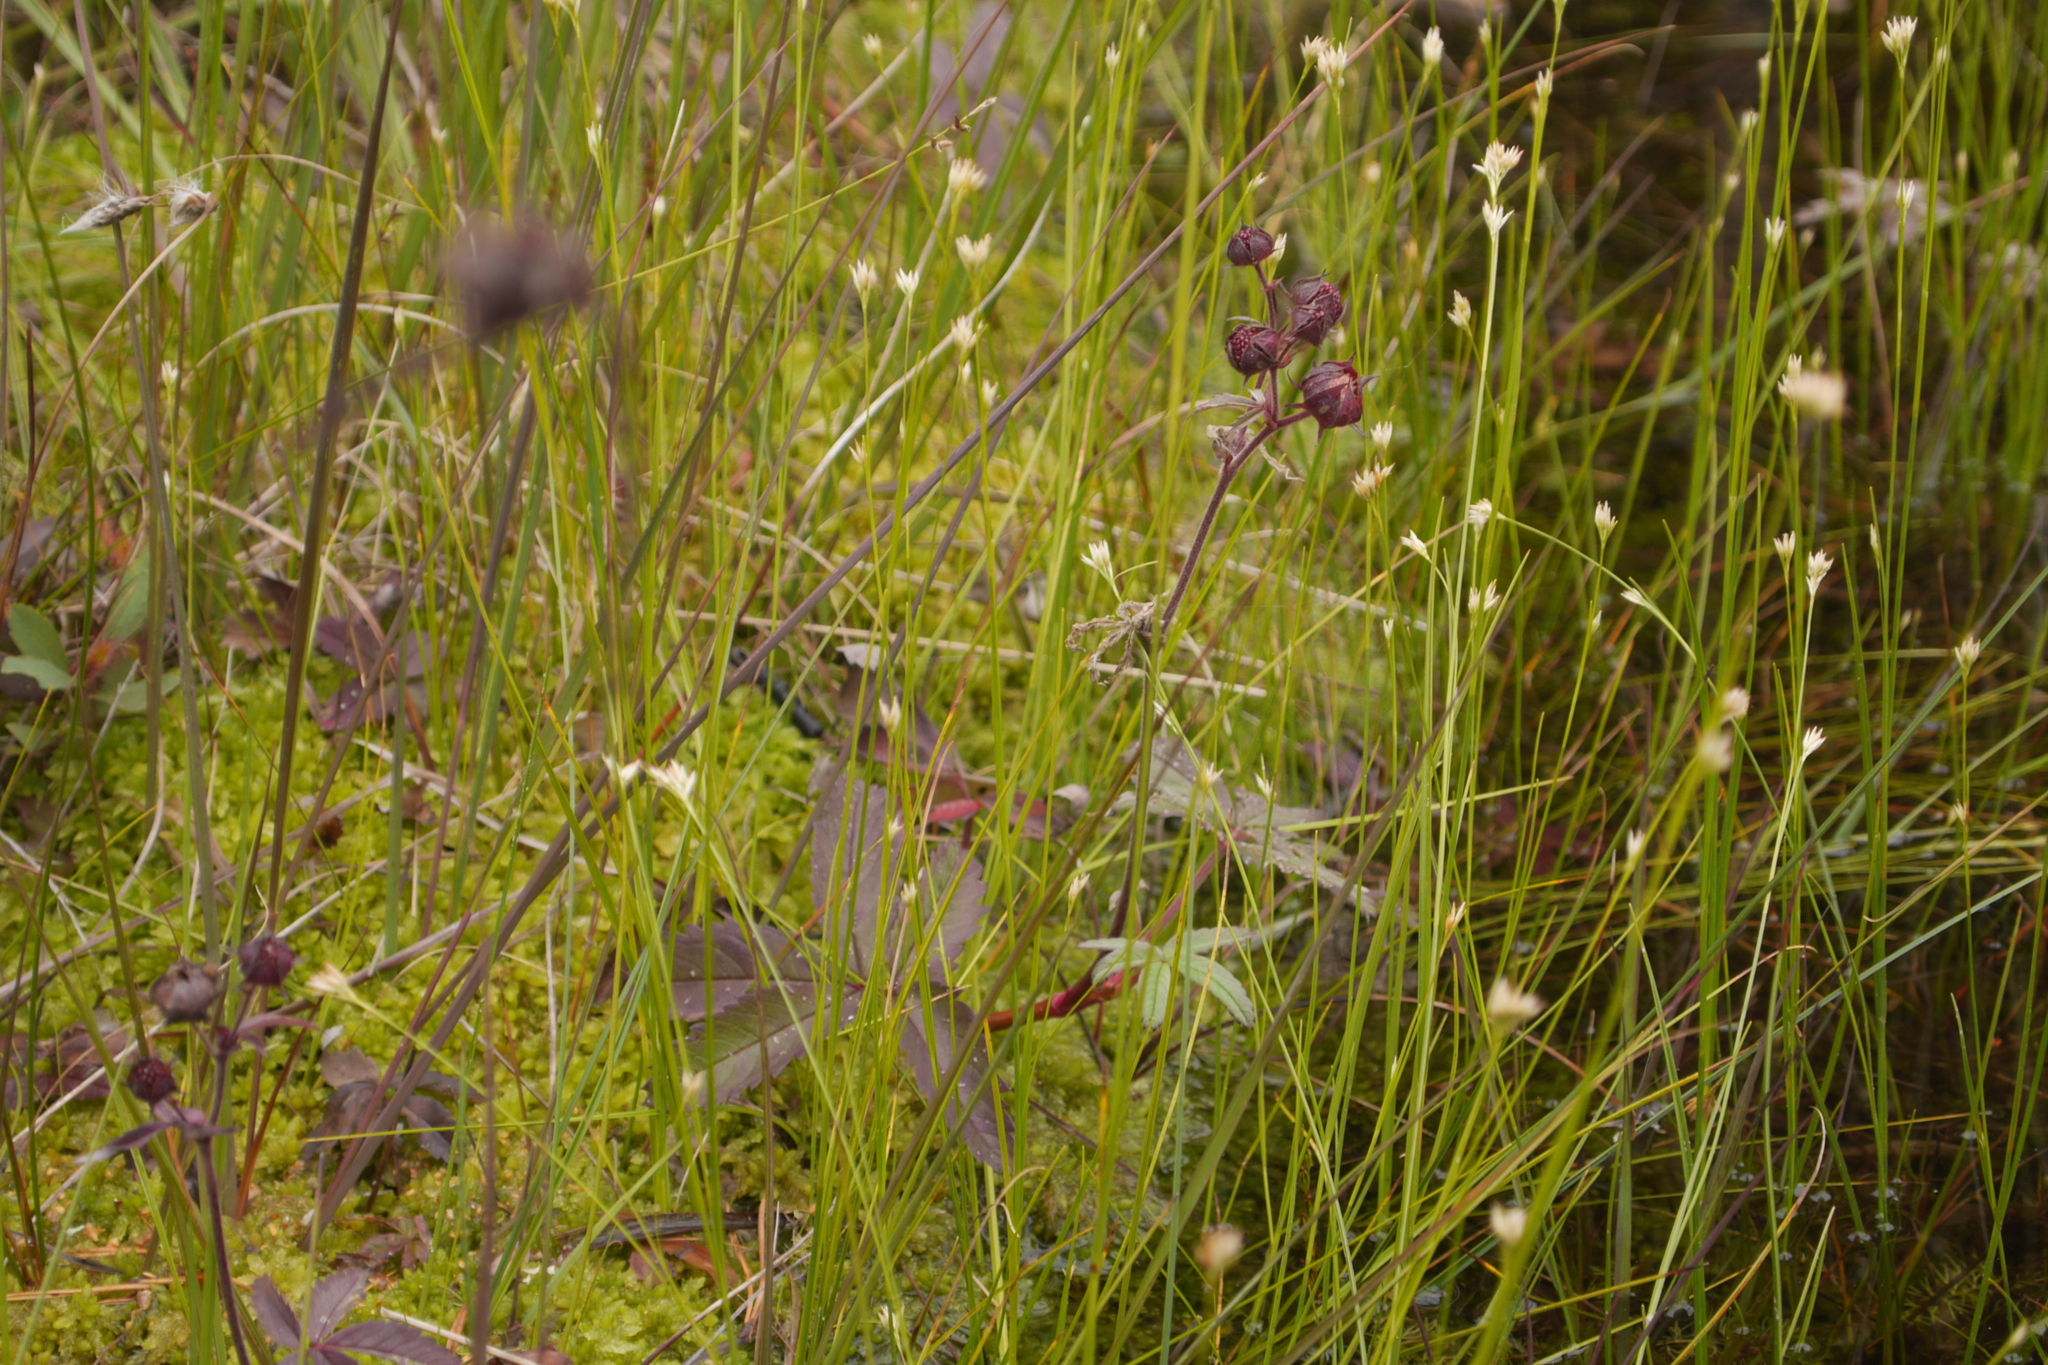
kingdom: Plantae
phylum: Tracheophyta
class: Magnoliopsida
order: Rosales
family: Rosaceae
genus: Comarum
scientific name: Comarum palustre
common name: Marsh cinquefoil
